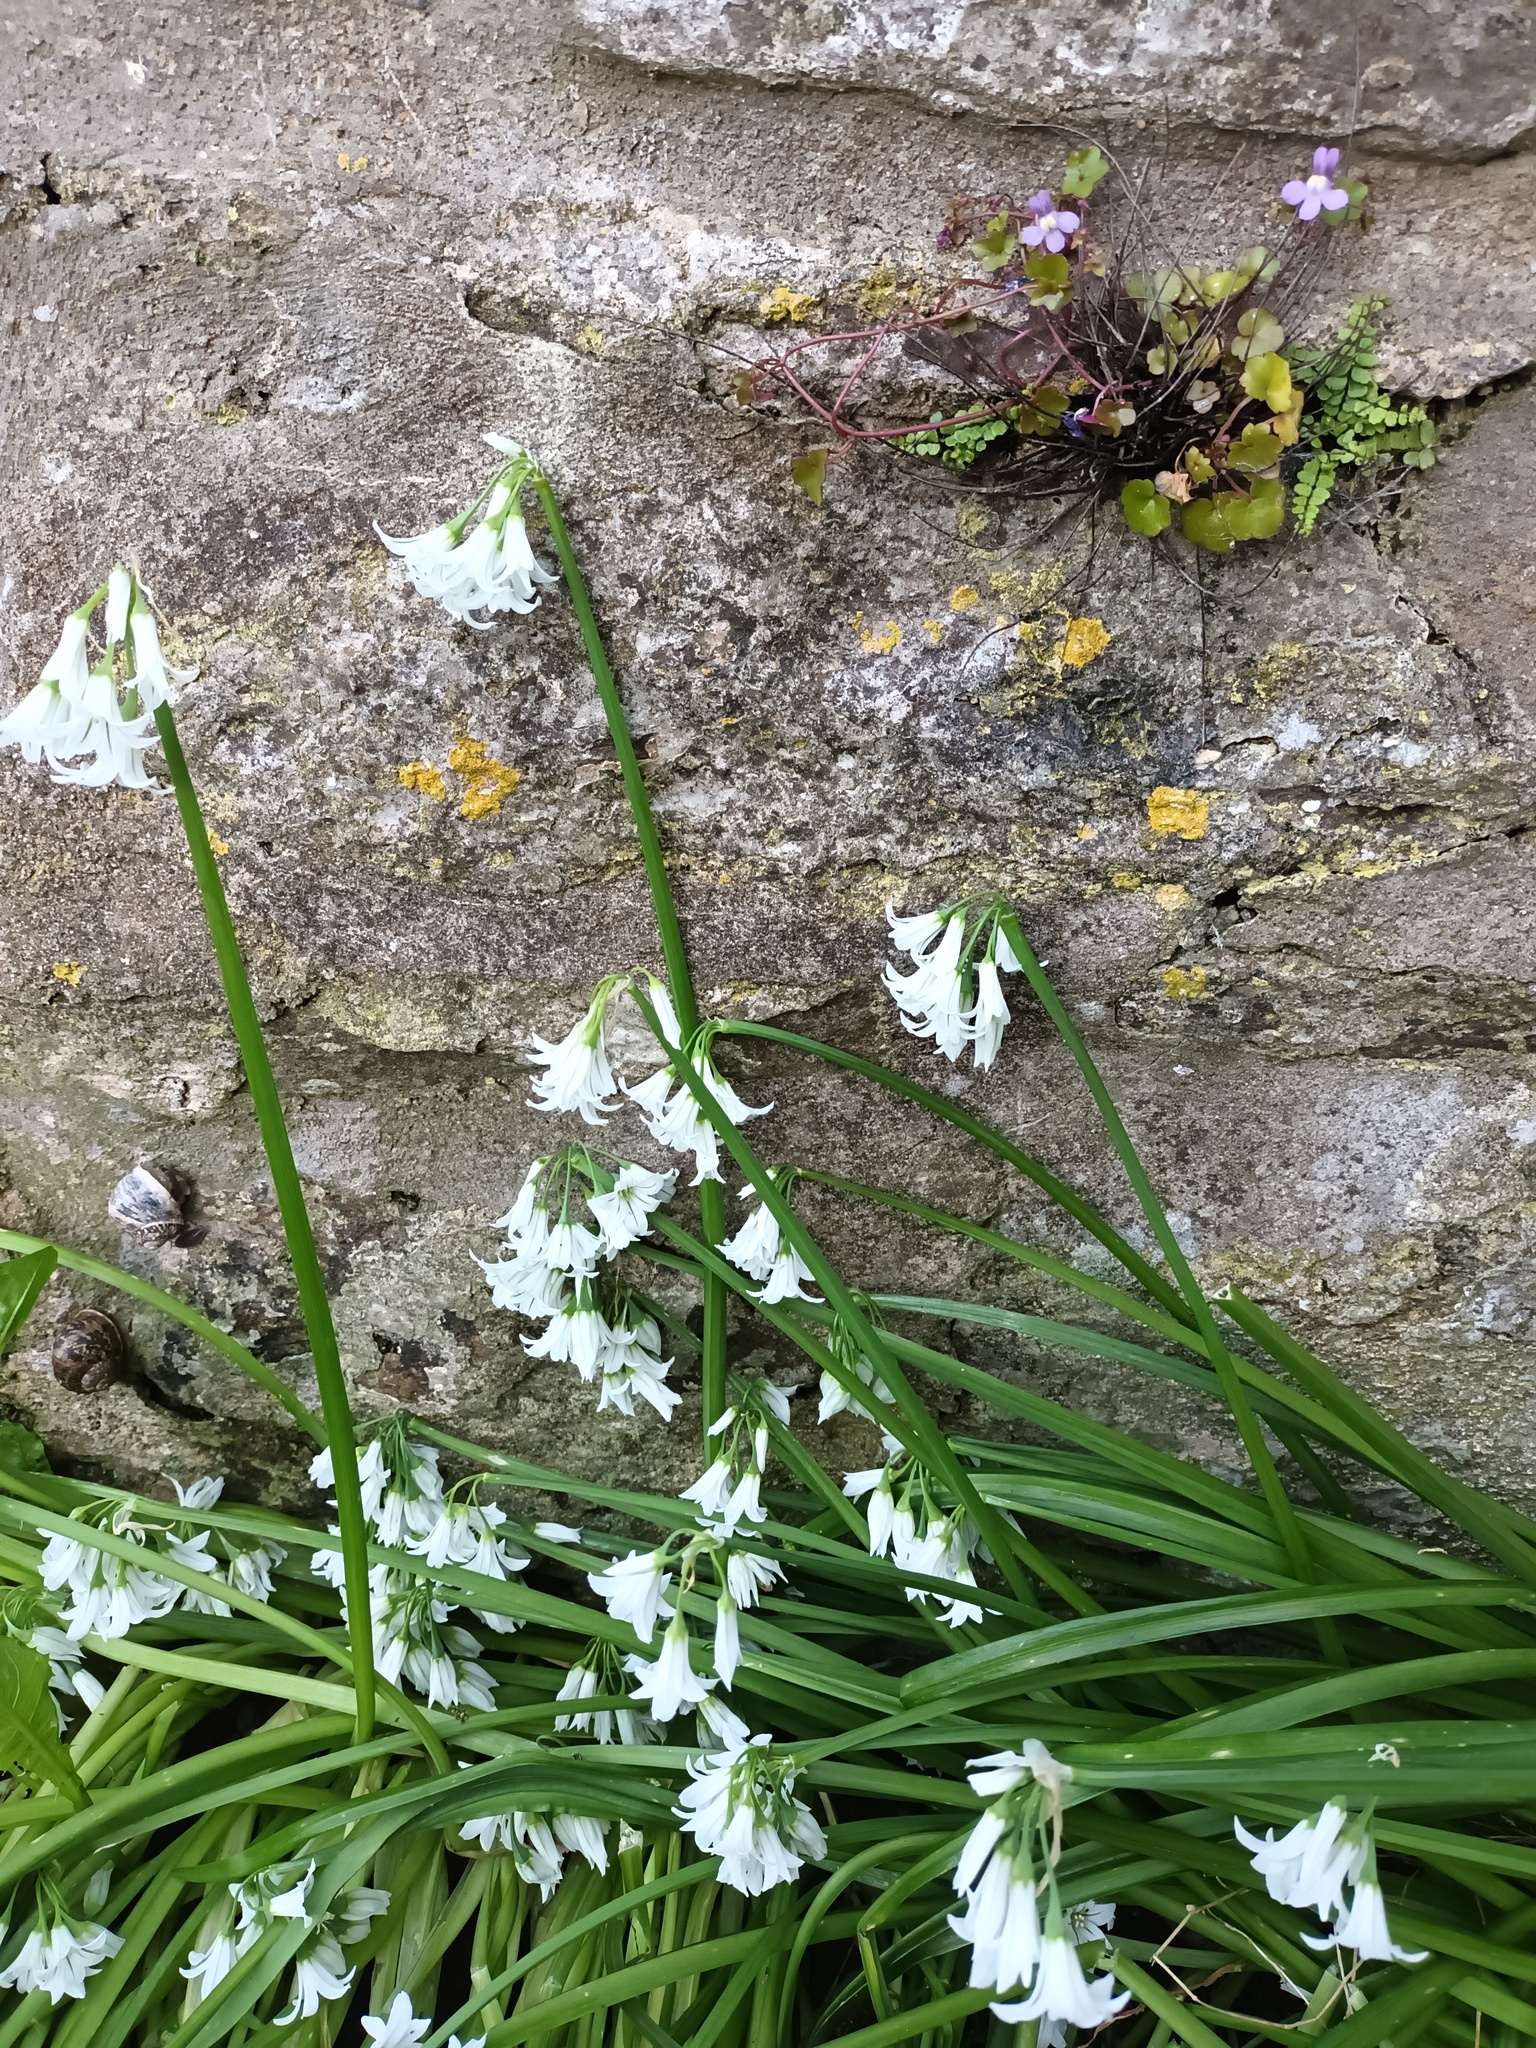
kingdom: Plantae
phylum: Tracheophyta
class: Liliopsida
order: Asparagales
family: Amaryllidaceae
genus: Allium
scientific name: Allium triquetrum
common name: Three-cornered garlic
